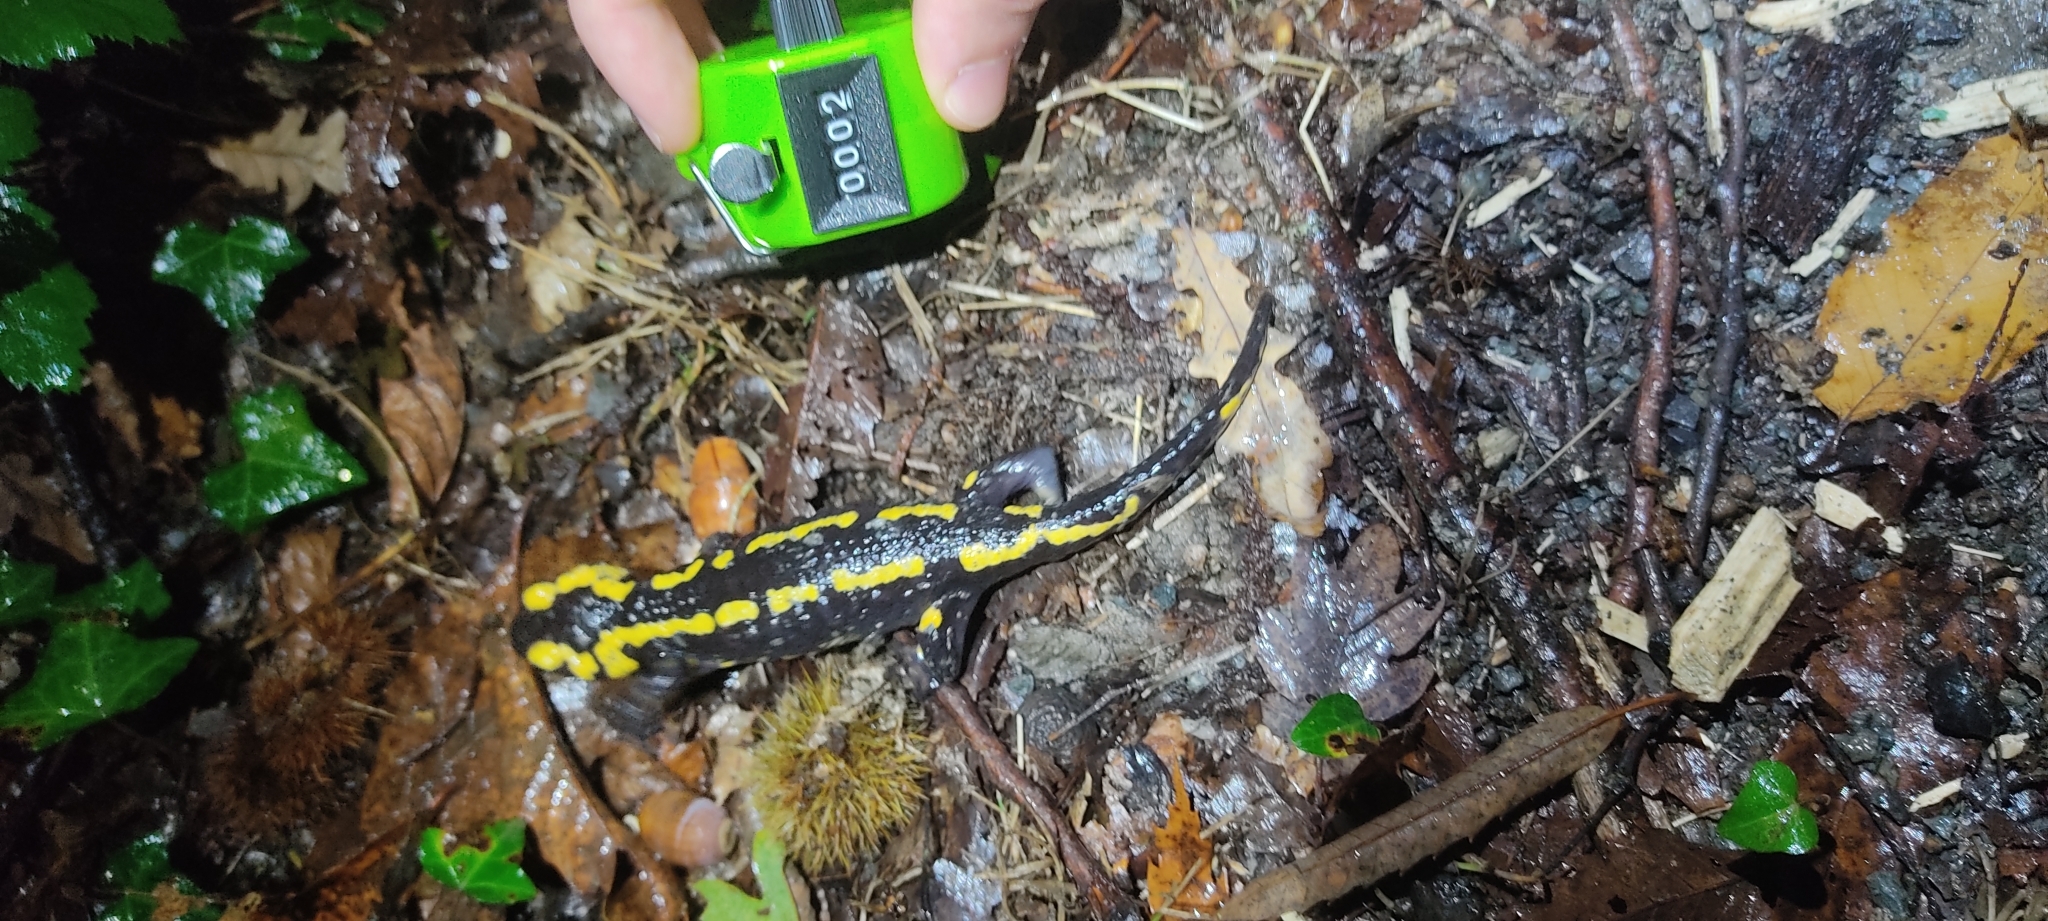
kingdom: Animalia
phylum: Chordata
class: Amphibia
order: Caudata
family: Salamandridae
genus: Salamandra
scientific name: Salamandra salamandra
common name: Fire salamander
